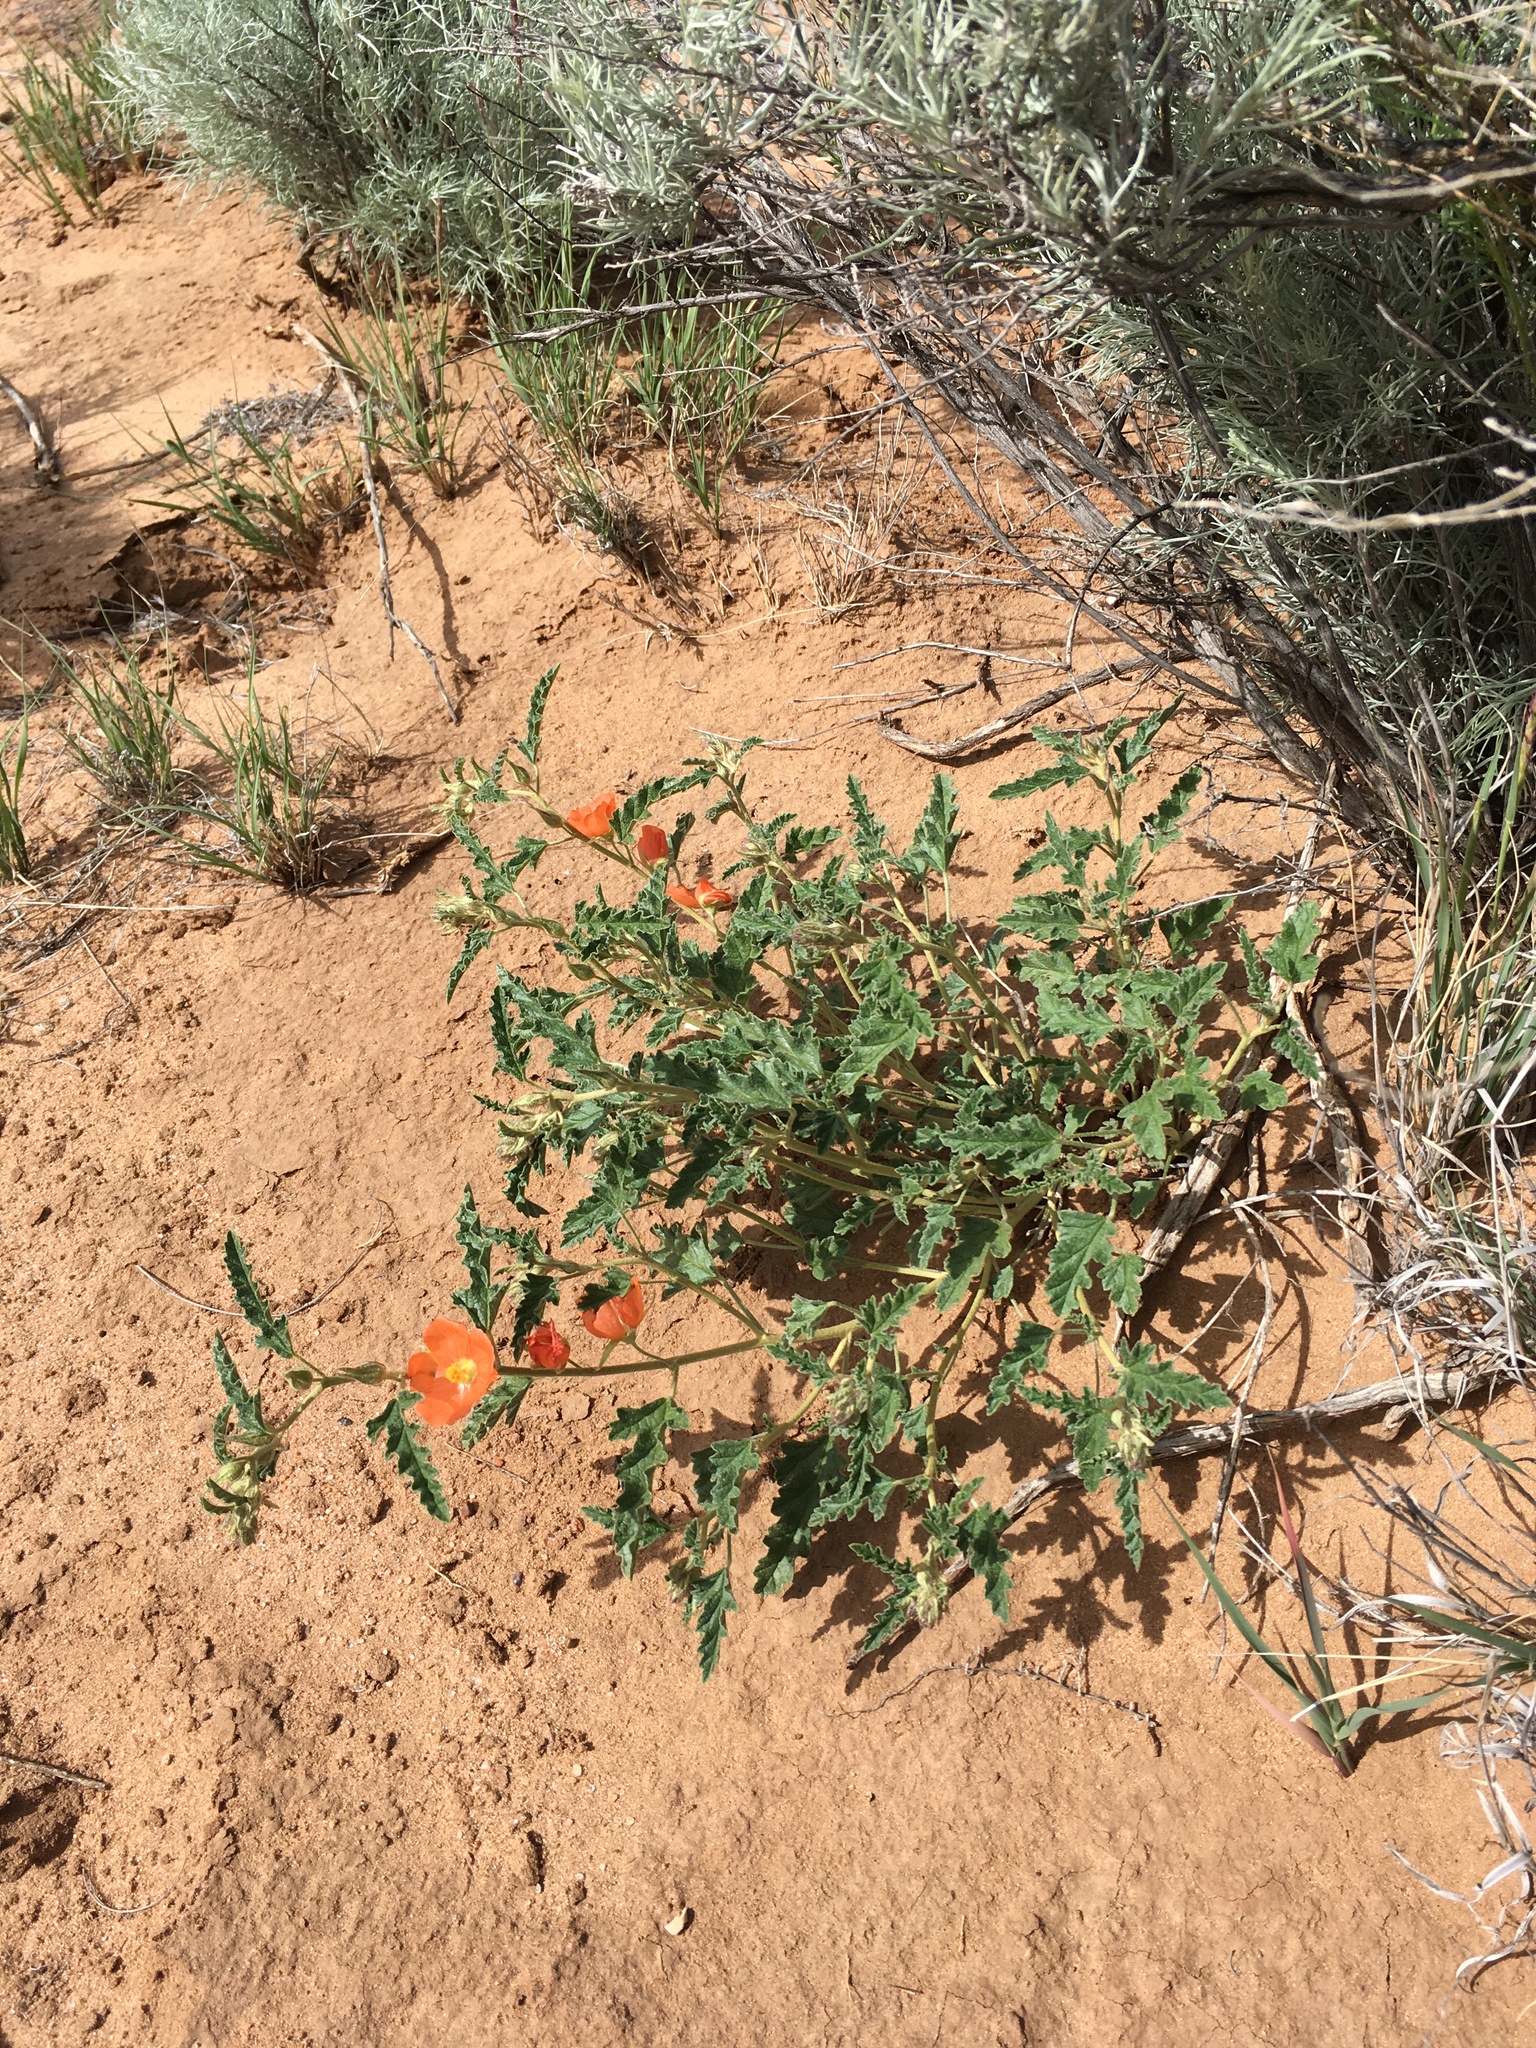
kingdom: Plantae
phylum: Tracheophyta
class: Magnoliopsida
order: Malvales
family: Malvaceae
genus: Sphaeralcea
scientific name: Sphaeralcea hastulata
